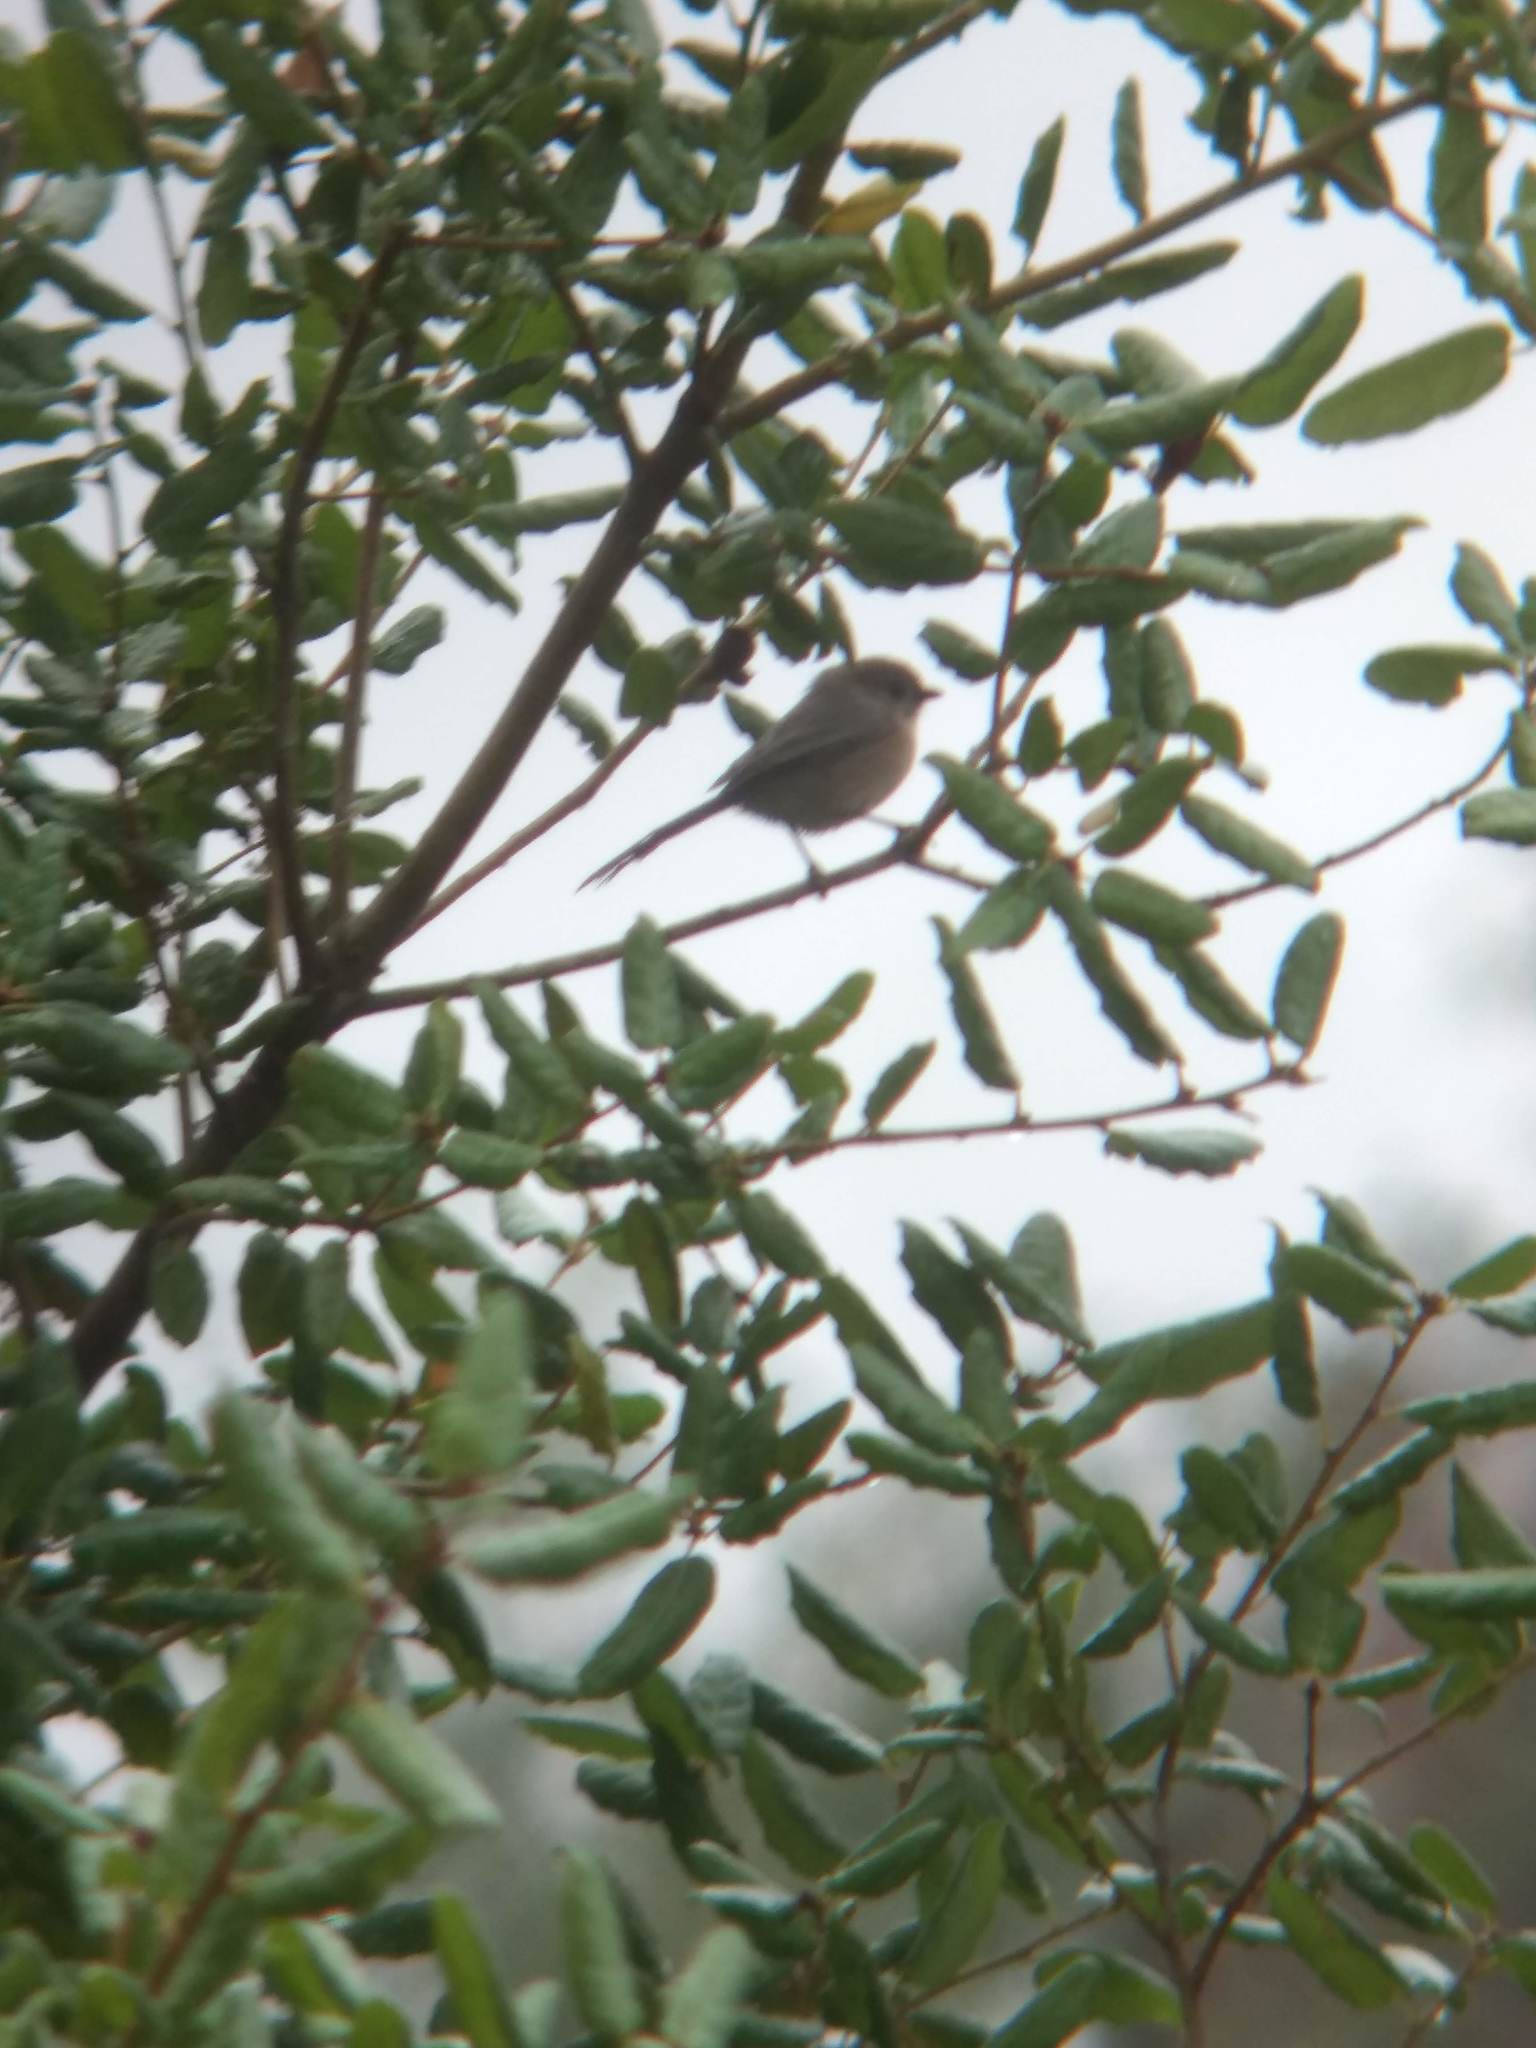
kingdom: Animalia
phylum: Chordata
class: Aves
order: Passeriformes
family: Aegithalidae
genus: Psaltriparus
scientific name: Psaltriparus minimus
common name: American bushtit
